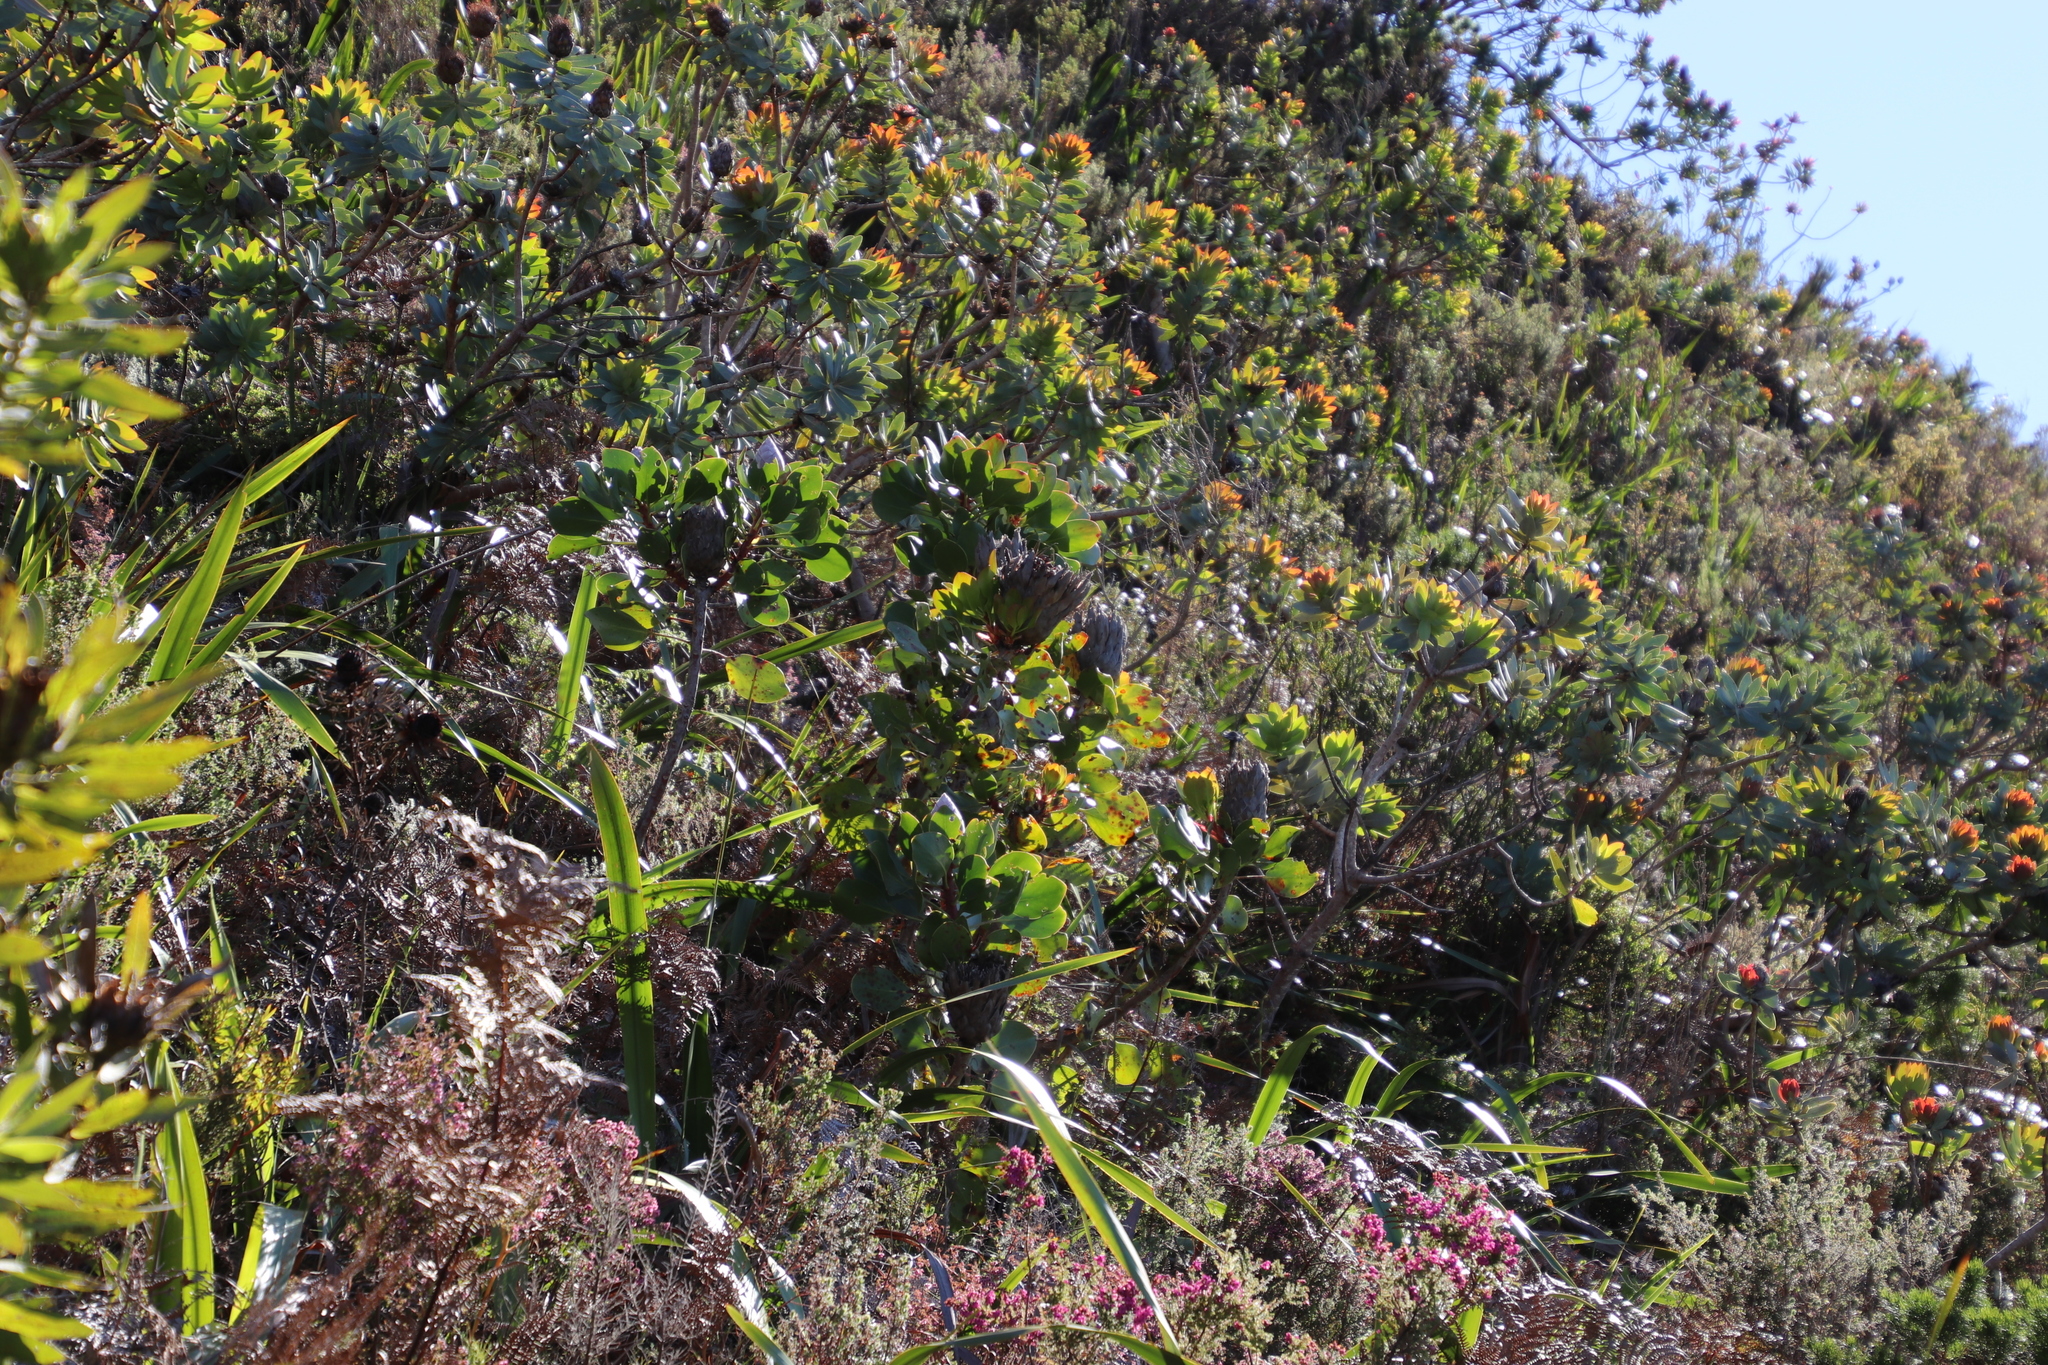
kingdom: Plantae
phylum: Tracheophyta
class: Magnoliopsida
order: Proteales
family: Proteaceae
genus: Protea
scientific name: Protea cynaroides
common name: King protea
